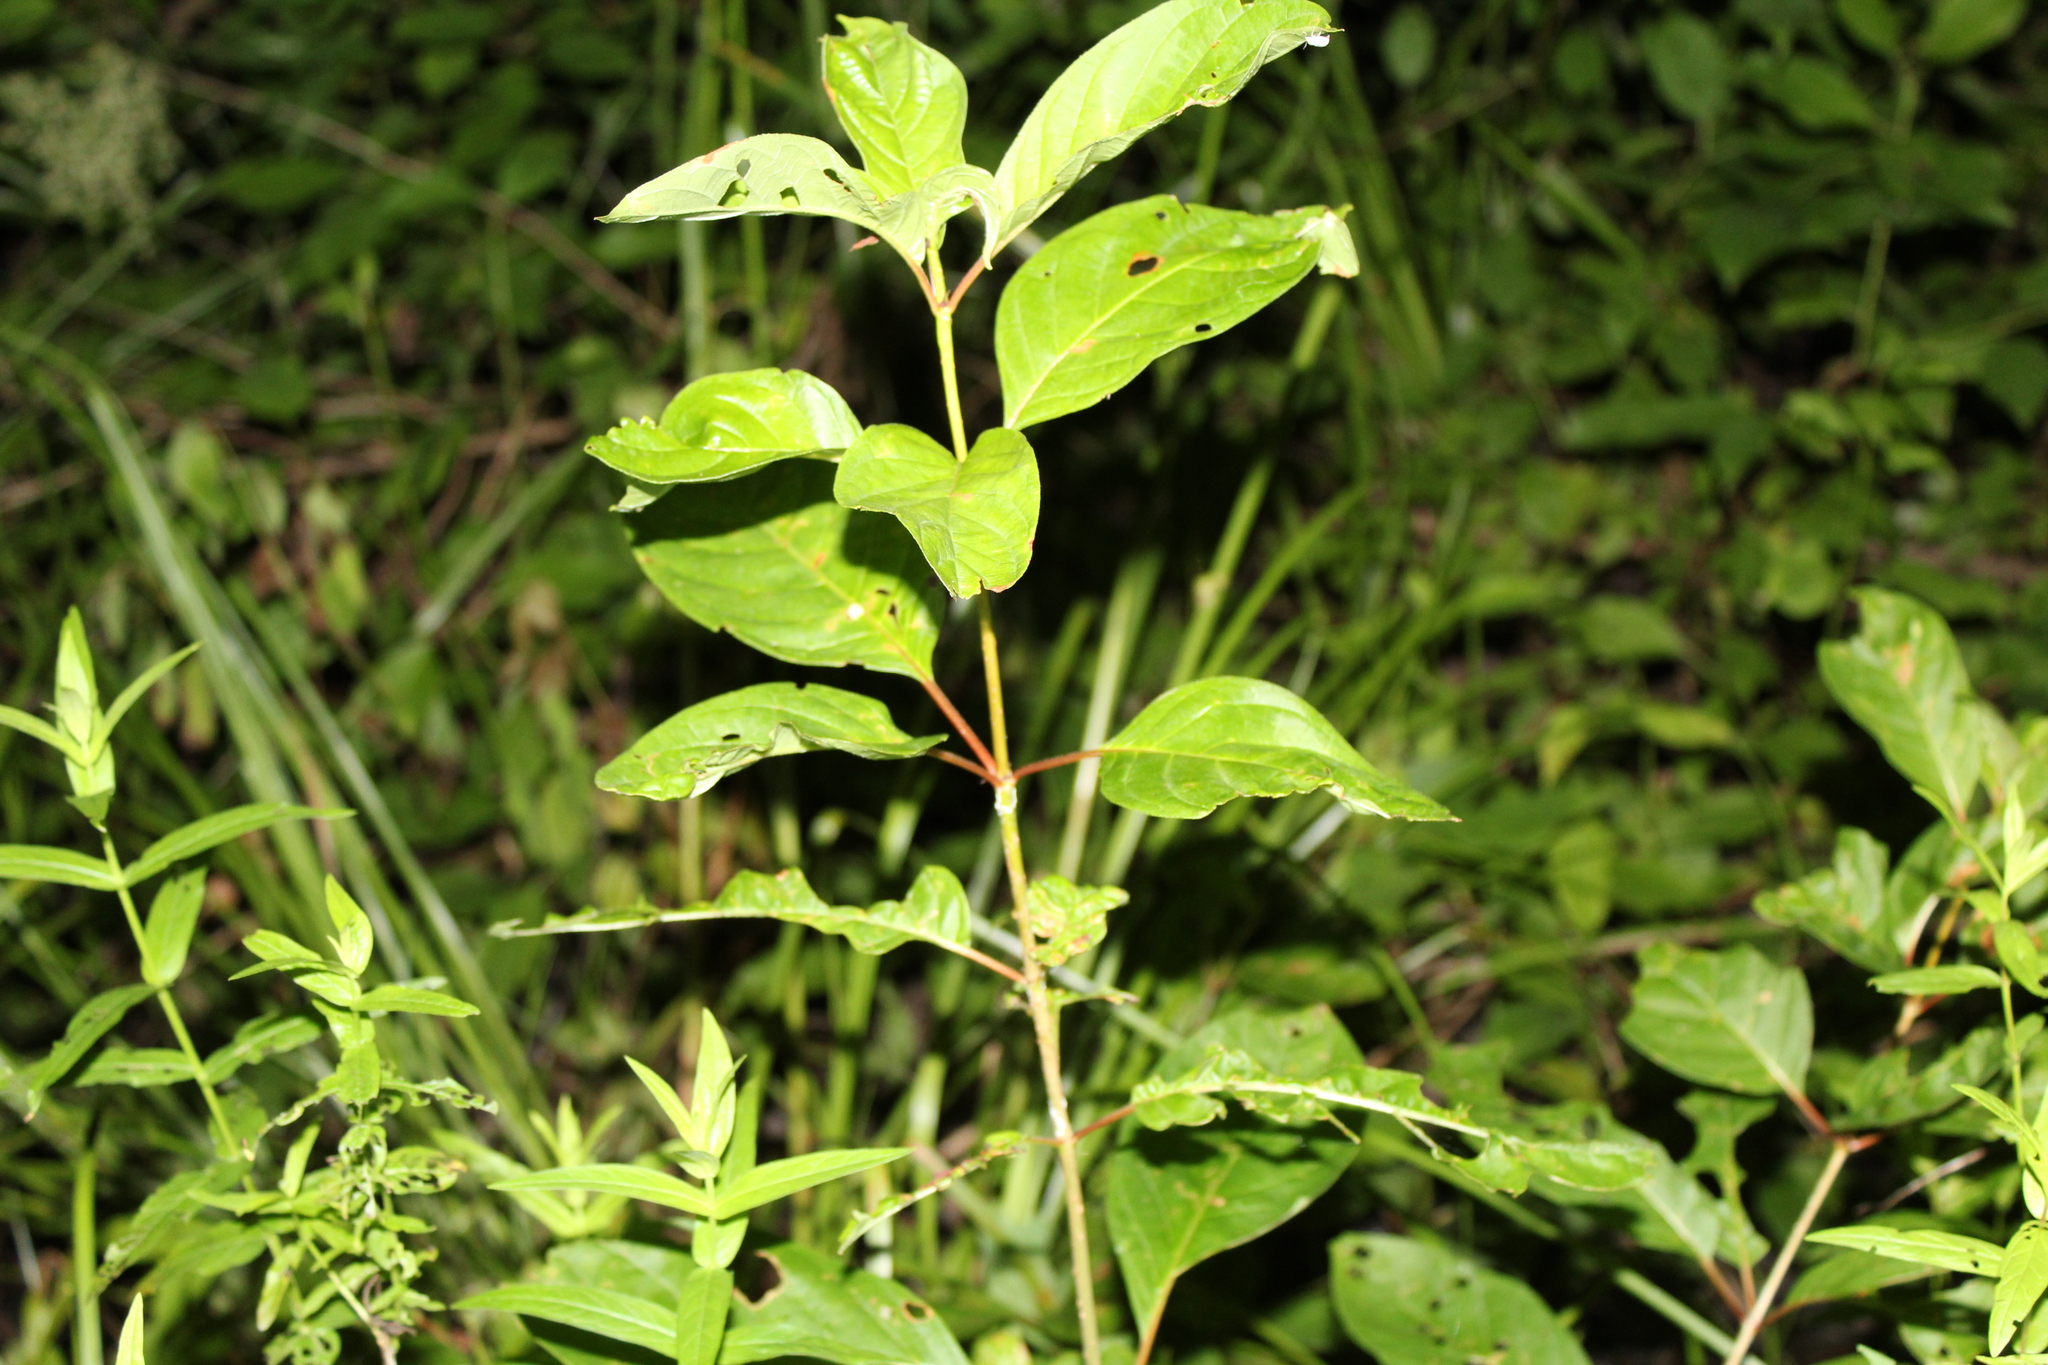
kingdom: Plantae
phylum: Tracheophyta
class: Magnoliopsida
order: Gentianales
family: Rubiaceae
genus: Cephalanthus
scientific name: Cephalanthus occidentalis
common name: Button-willow
